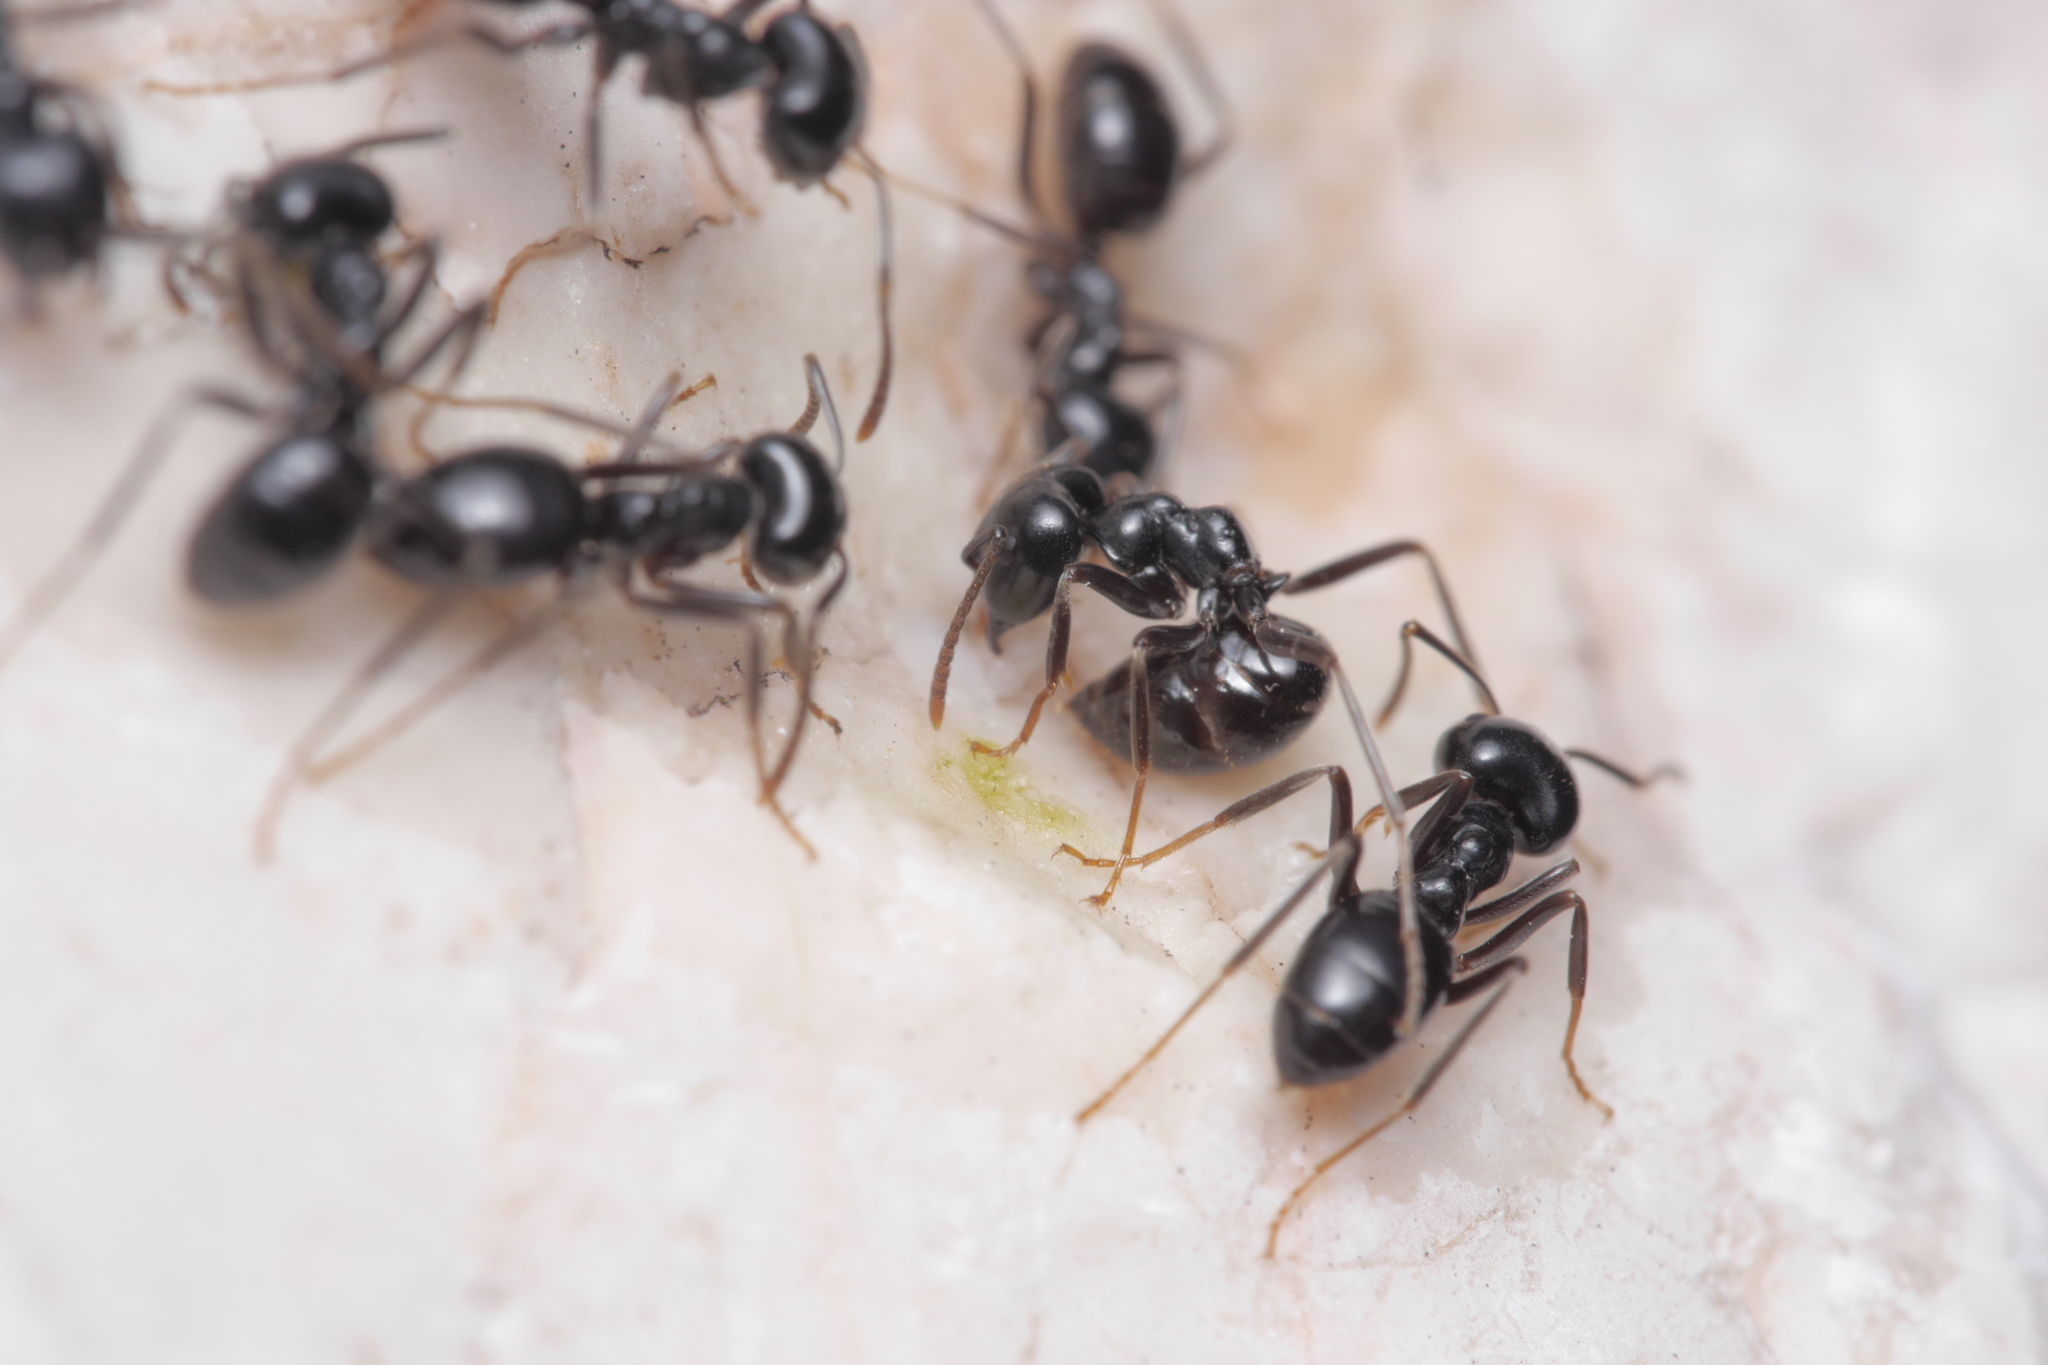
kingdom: Animalia
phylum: Arthropoda
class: Insecta
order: Hymenoptera
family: Formicidae
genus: Lasius
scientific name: Lasius fuliginosus
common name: Jet ant
